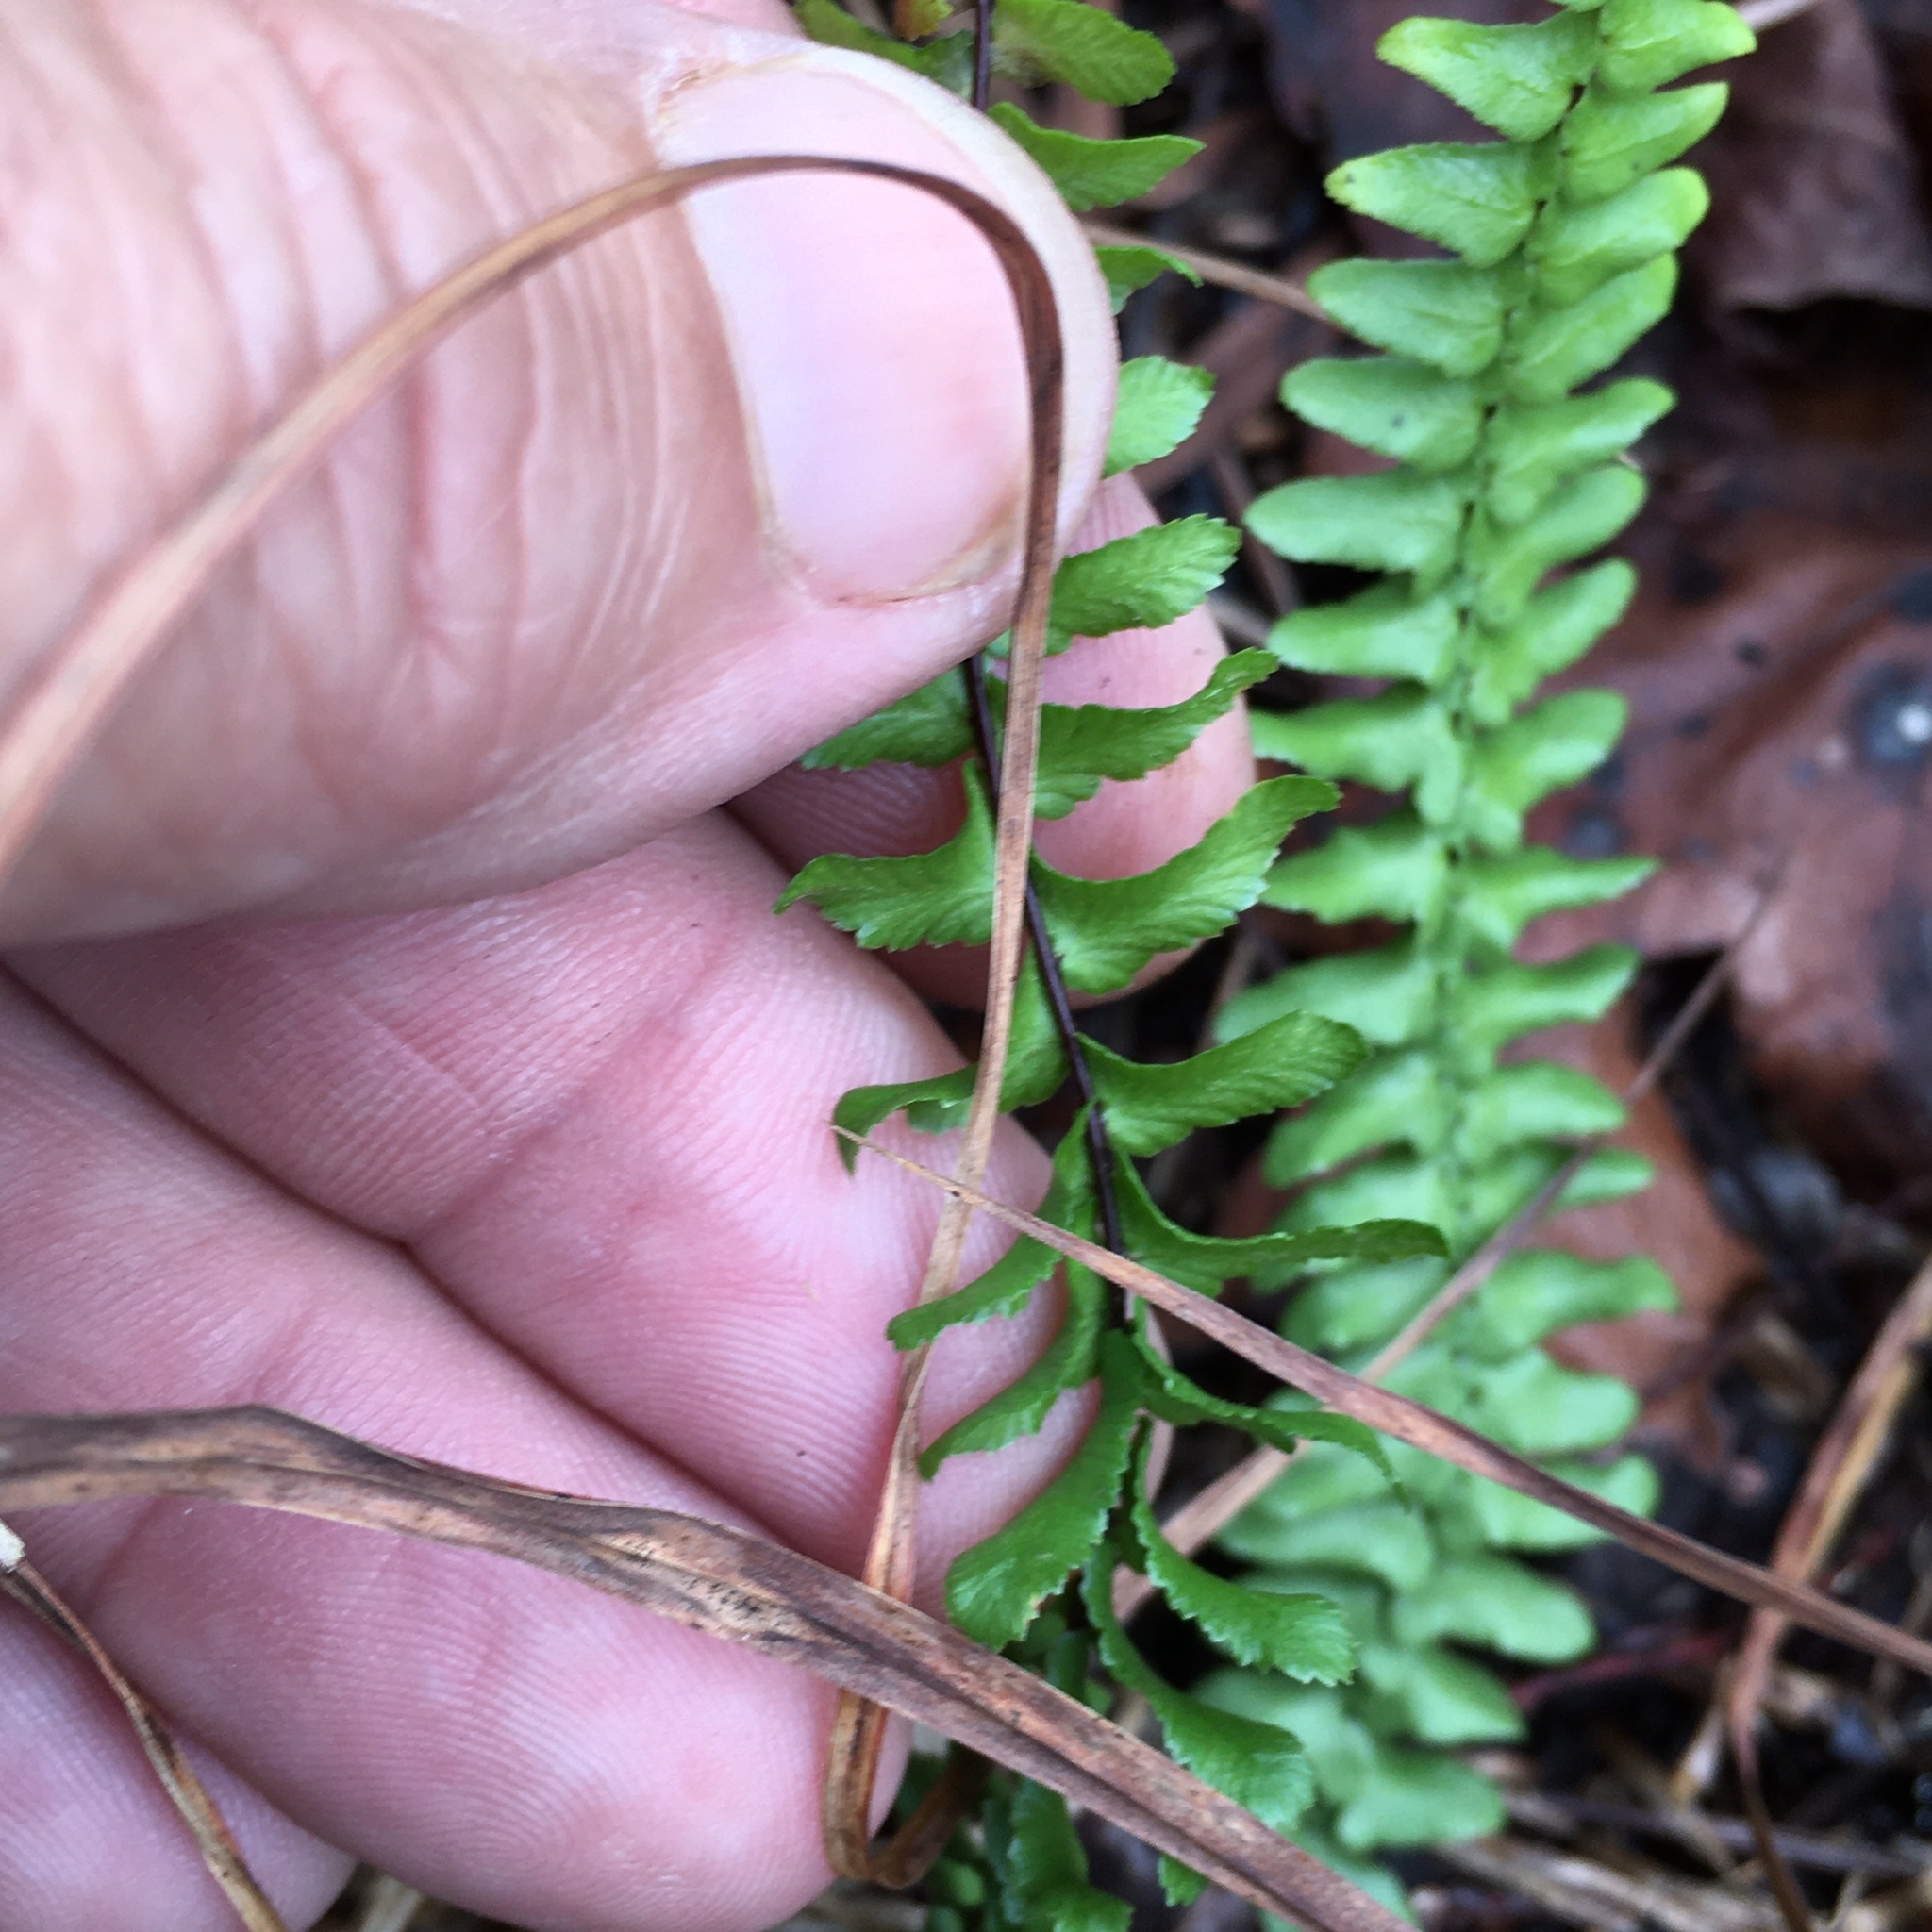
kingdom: Plantae
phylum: Tracheophyta
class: Polypodiopsida
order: Polypodiales
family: Aspleniaceae
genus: Asplenium
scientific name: Asplenium platyneuron
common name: Ebony spleenwort
